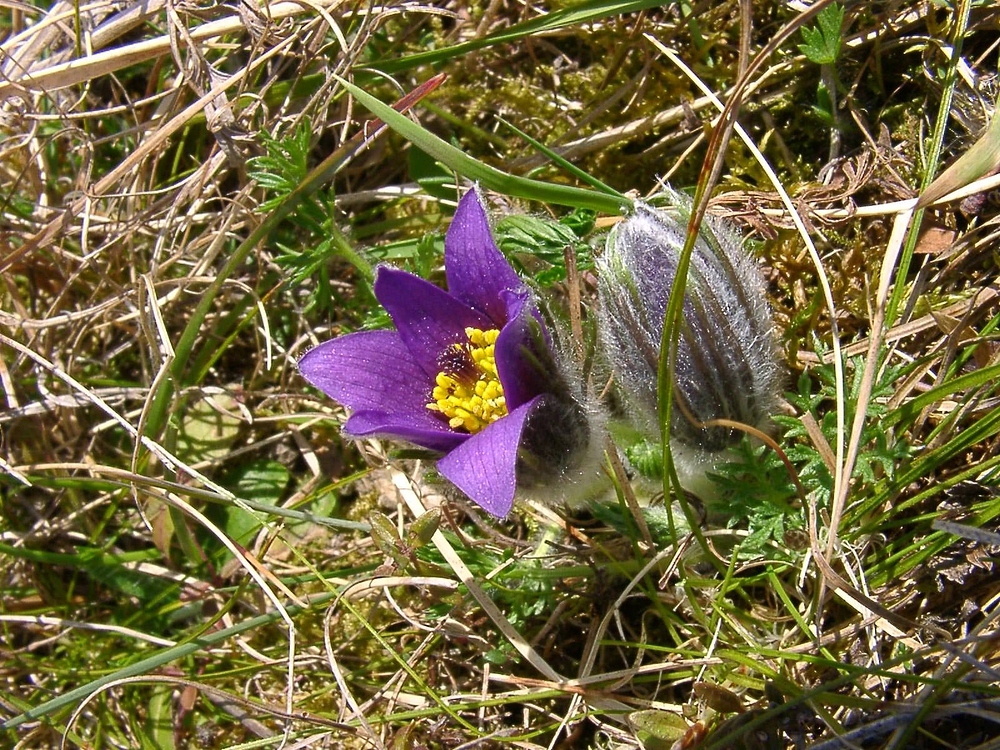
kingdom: Plantae
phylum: Tracheophyta
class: Magnoliopsida
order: Ranunculales
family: Ranunculaceae
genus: Pulsatilla
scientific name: Pulsatilla vulgaris
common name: Pasqueflower
